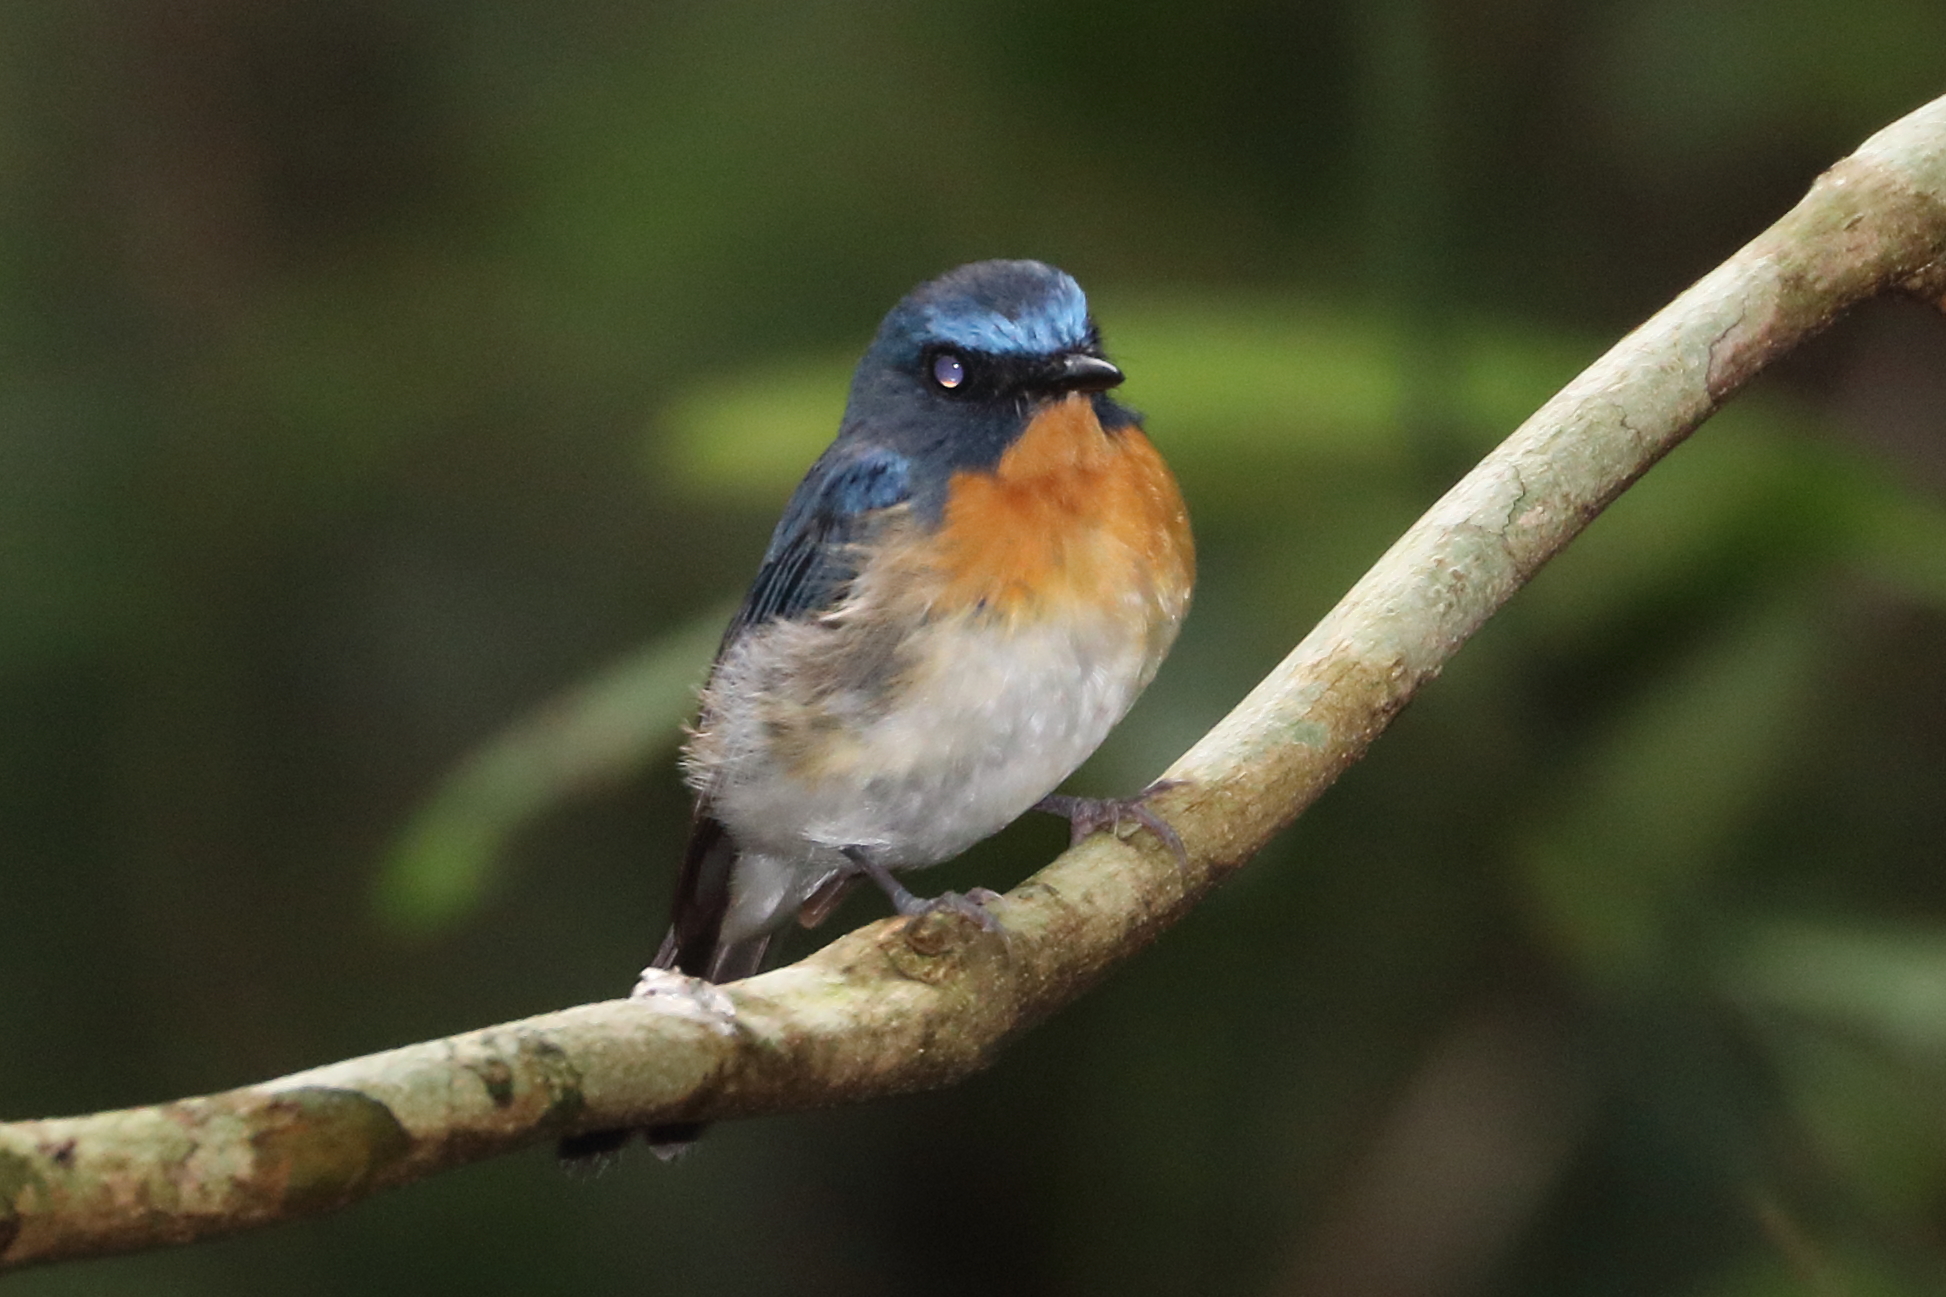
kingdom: Animalia
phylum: Chordata
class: Aves
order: Passeriformes
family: Muscicapidae
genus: Cyornis
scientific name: Cyornis tickelliae
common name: Tickell's blue flycatcher
